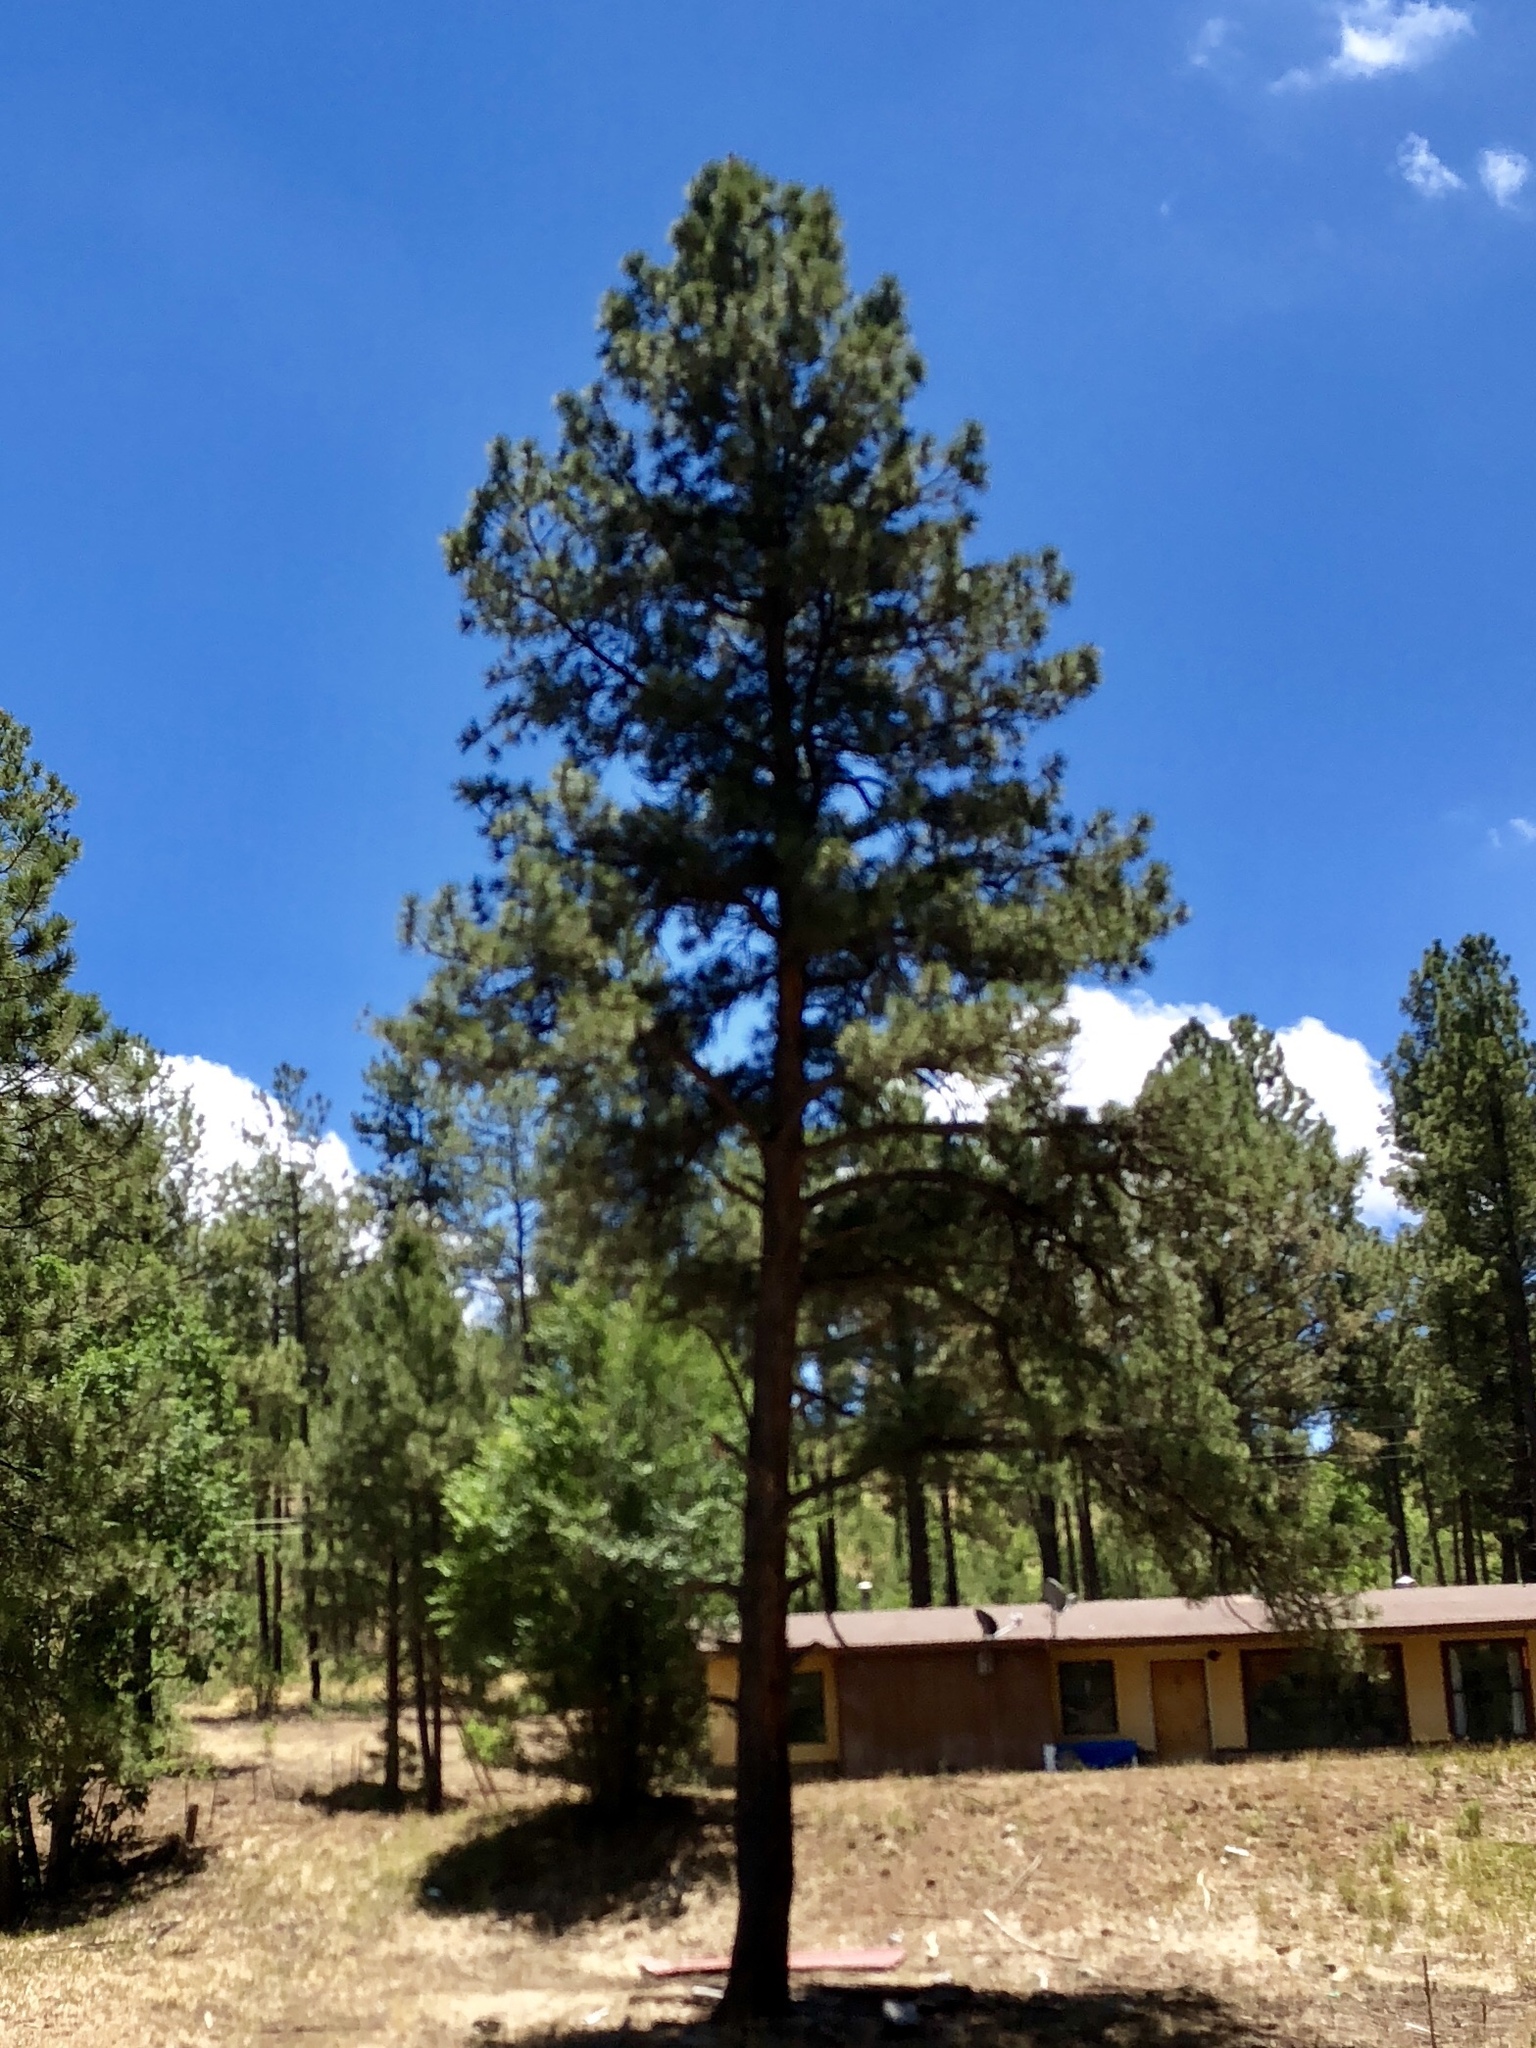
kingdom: Plantae
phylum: Tracheophyta
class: Pinopsida
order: Pinales
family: Pinaceae
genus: Pinus
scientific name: Pinus ponderosa
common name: Western yellow-pine
